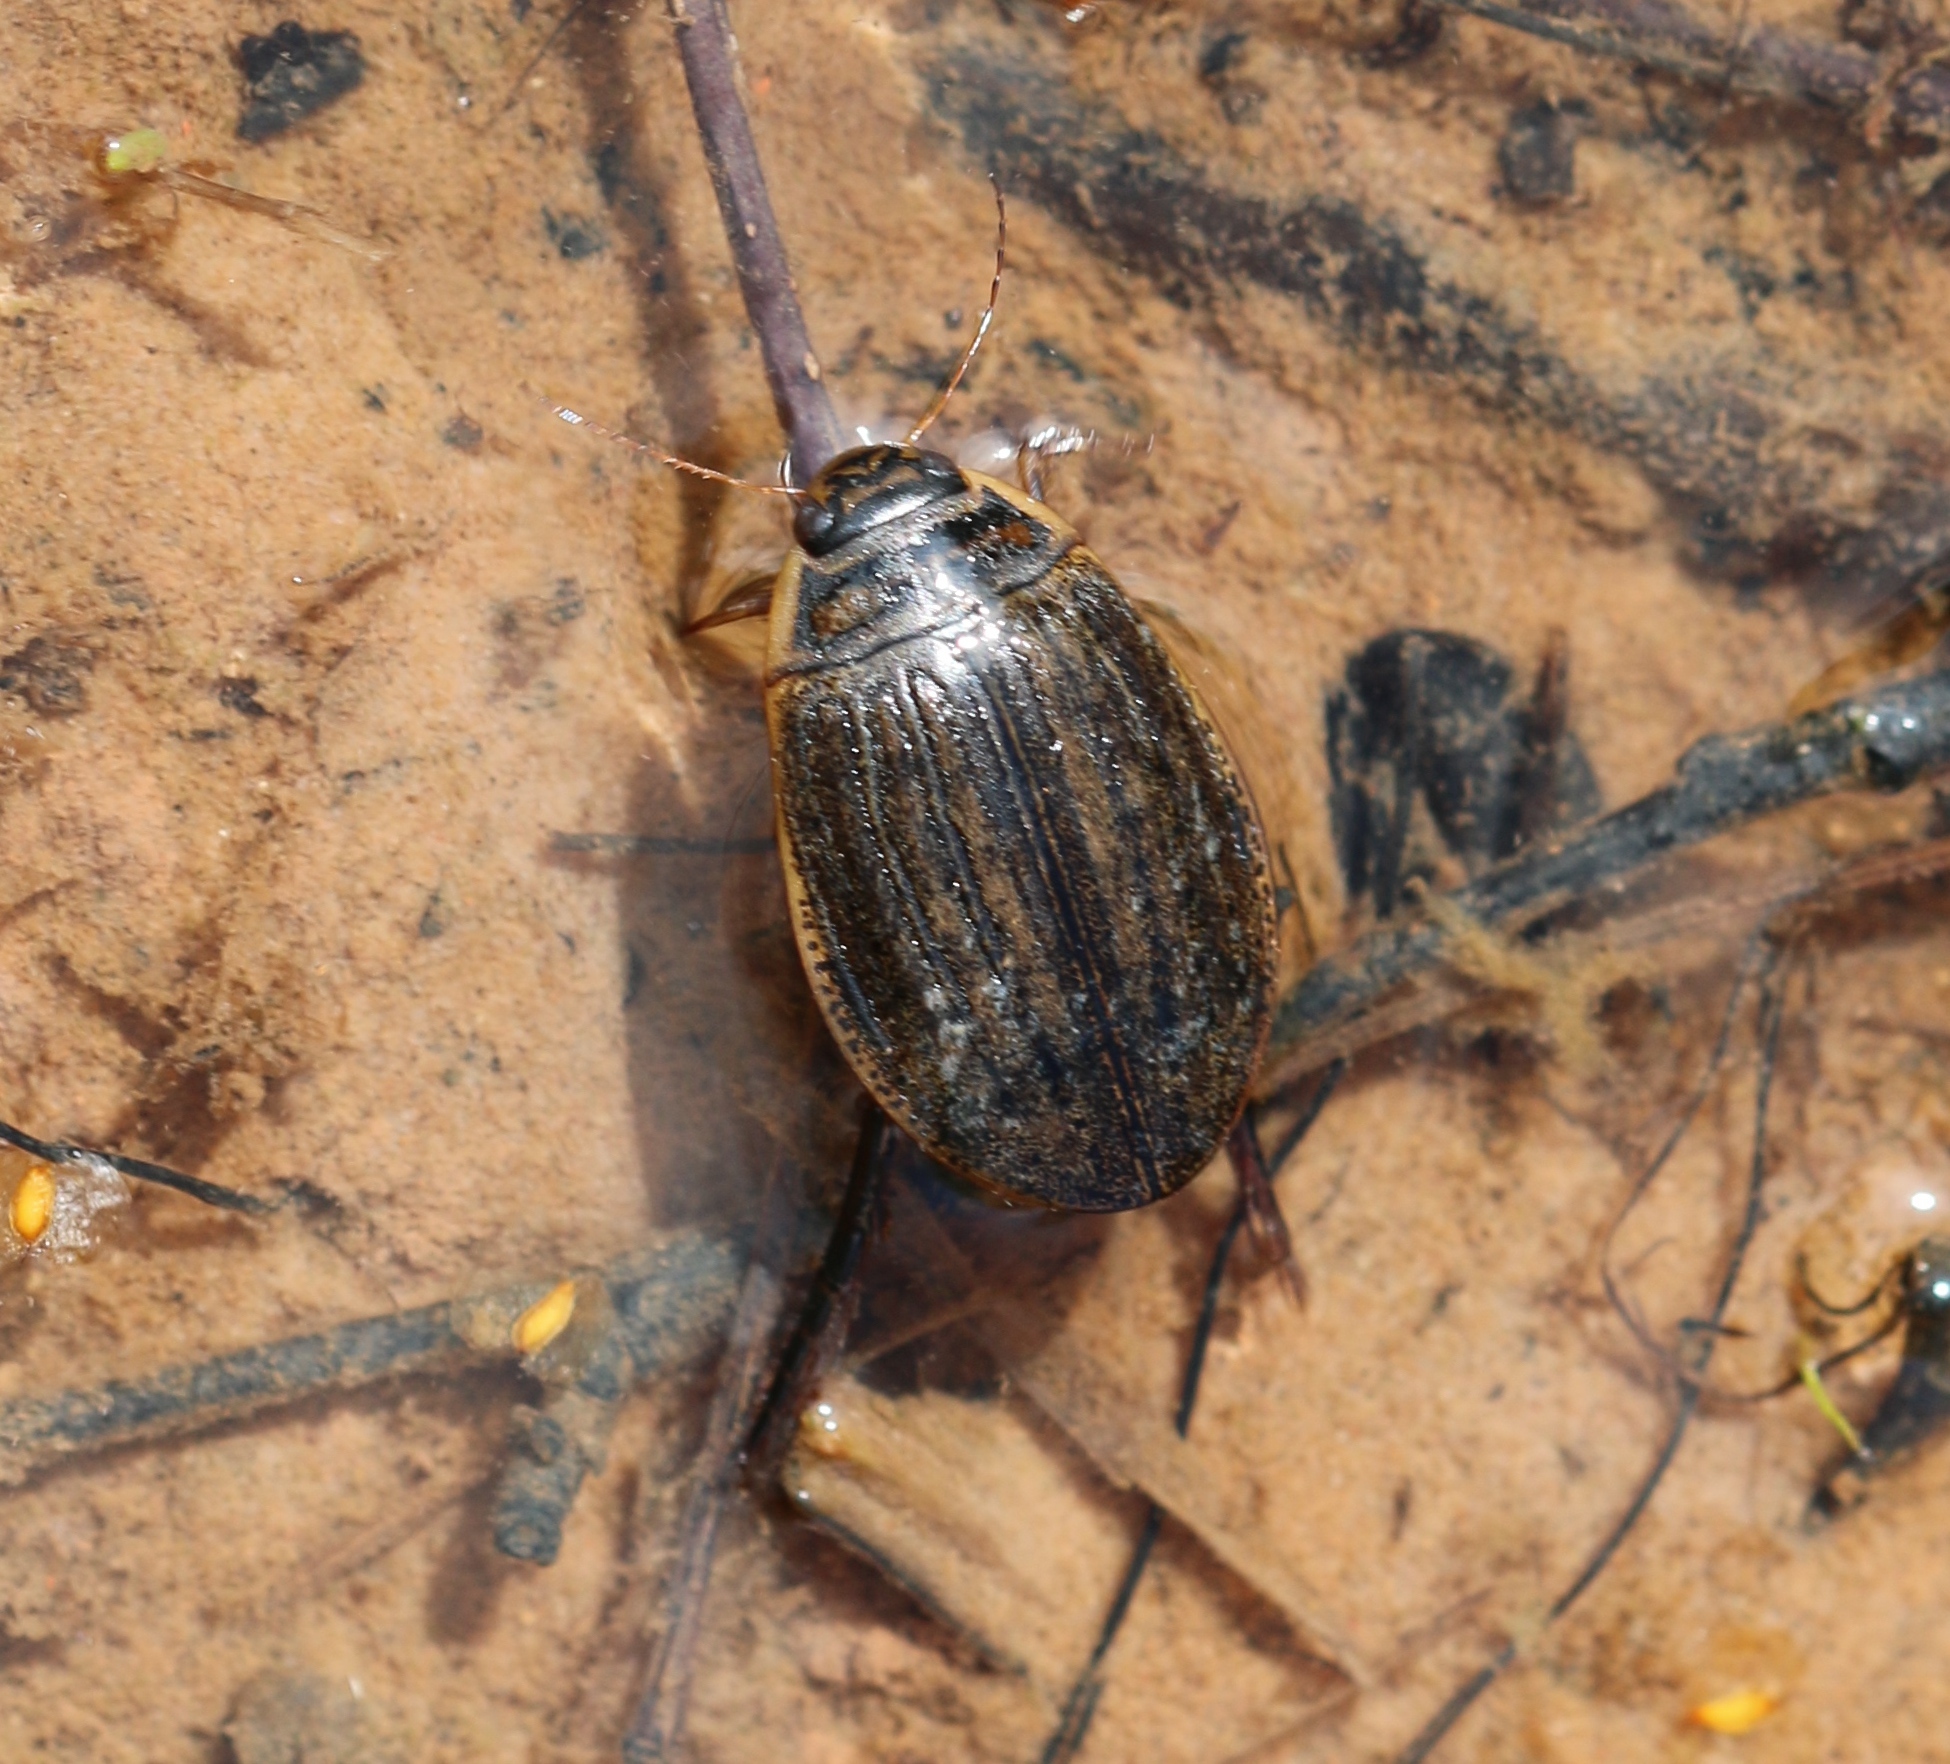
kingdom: Animalia
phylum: Arthropoda
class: Insecta
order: Coleoptera
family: Dytiscidae
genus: Acilius
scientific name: Acilius sulcatus
